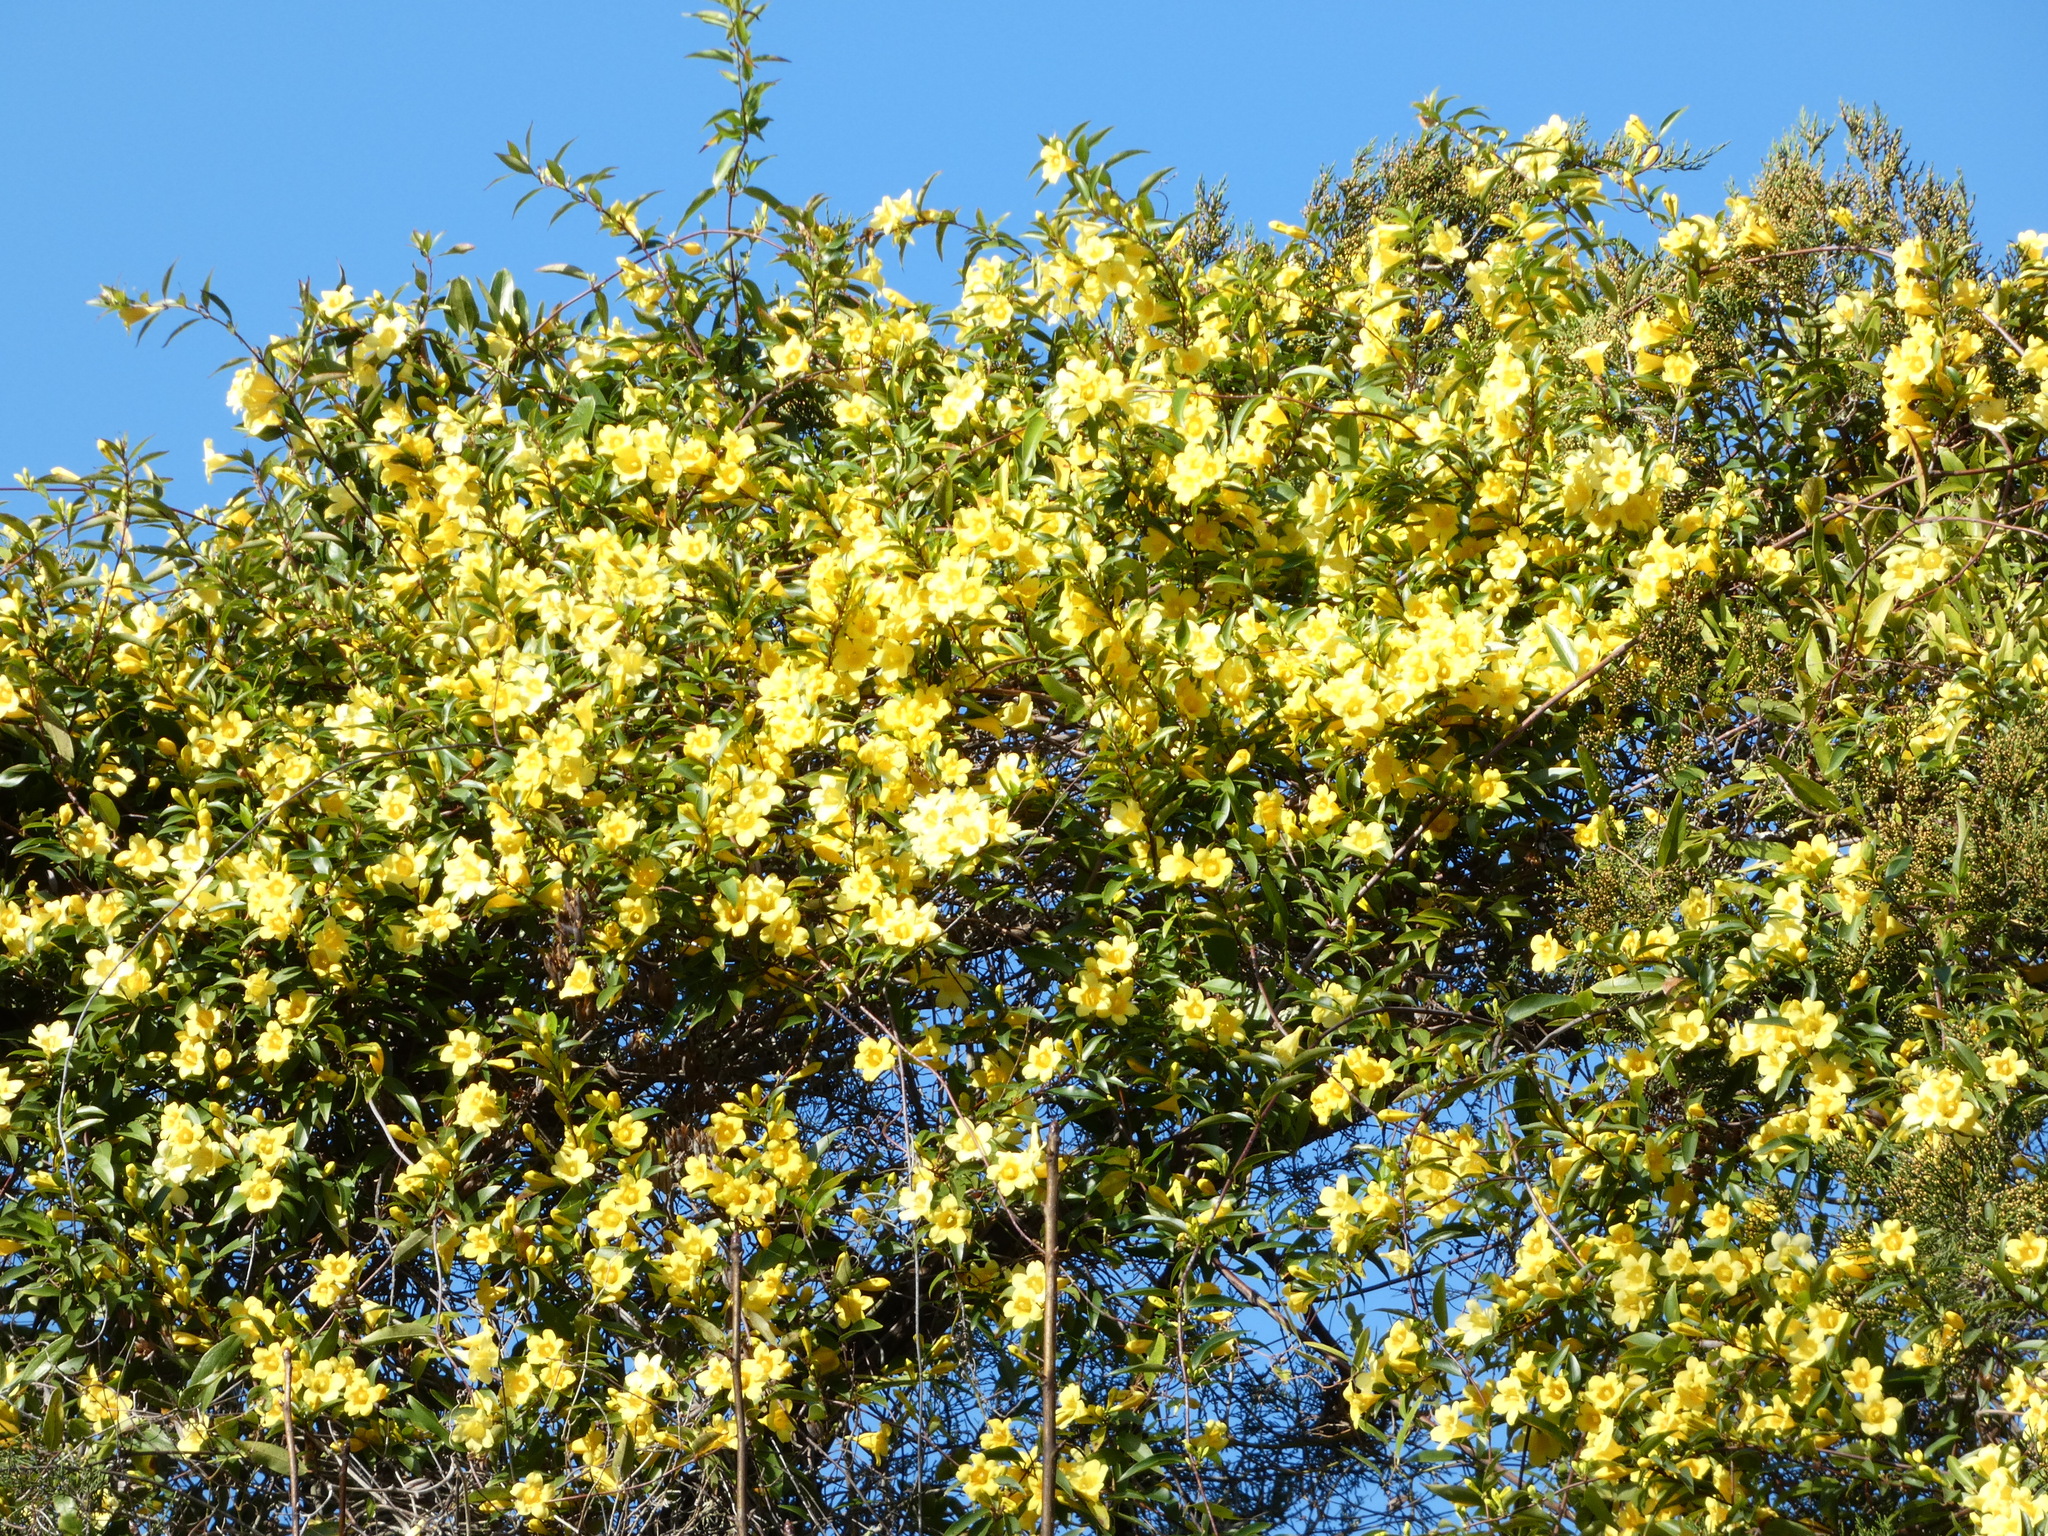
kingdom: Plantae
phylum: Tracheophyta
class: Magnoliopsida
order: Gentianales
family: Gelsemiaceae
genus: Gelsemium
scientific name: Gelsemium sempervirens
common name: Carolina-jasmine
